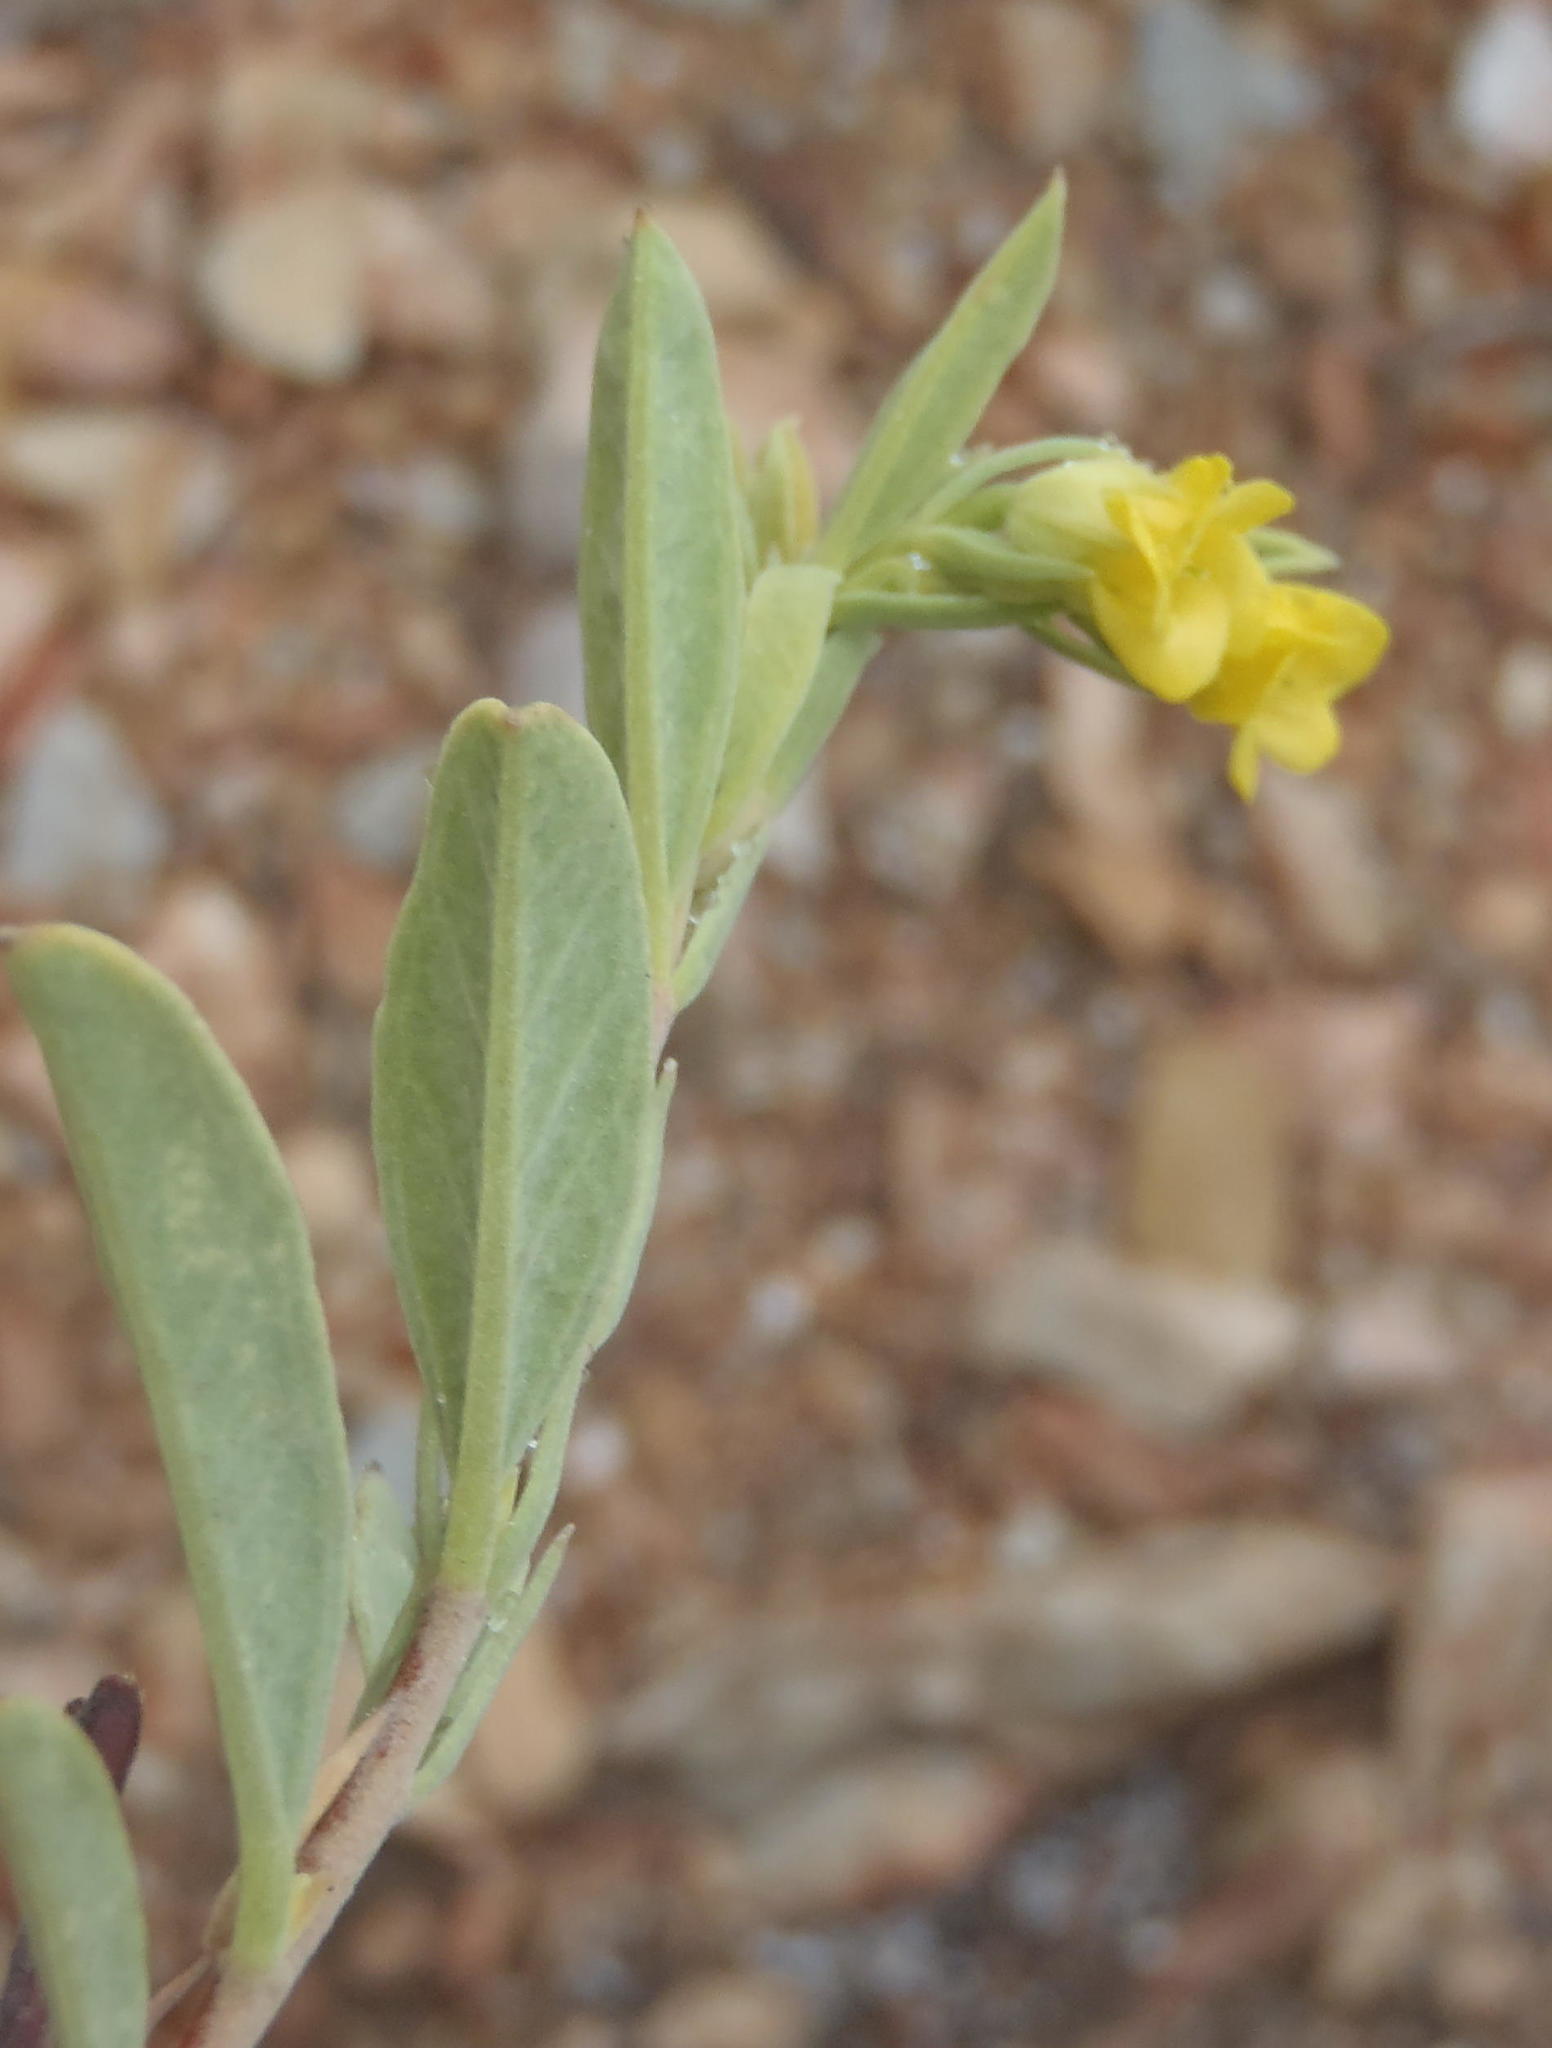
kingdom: Plantae
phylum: Tracheophyta
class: Magnoliopsida
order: Malvales
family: Malvaceae
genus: Hermannia
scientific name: Hermannia velutina
